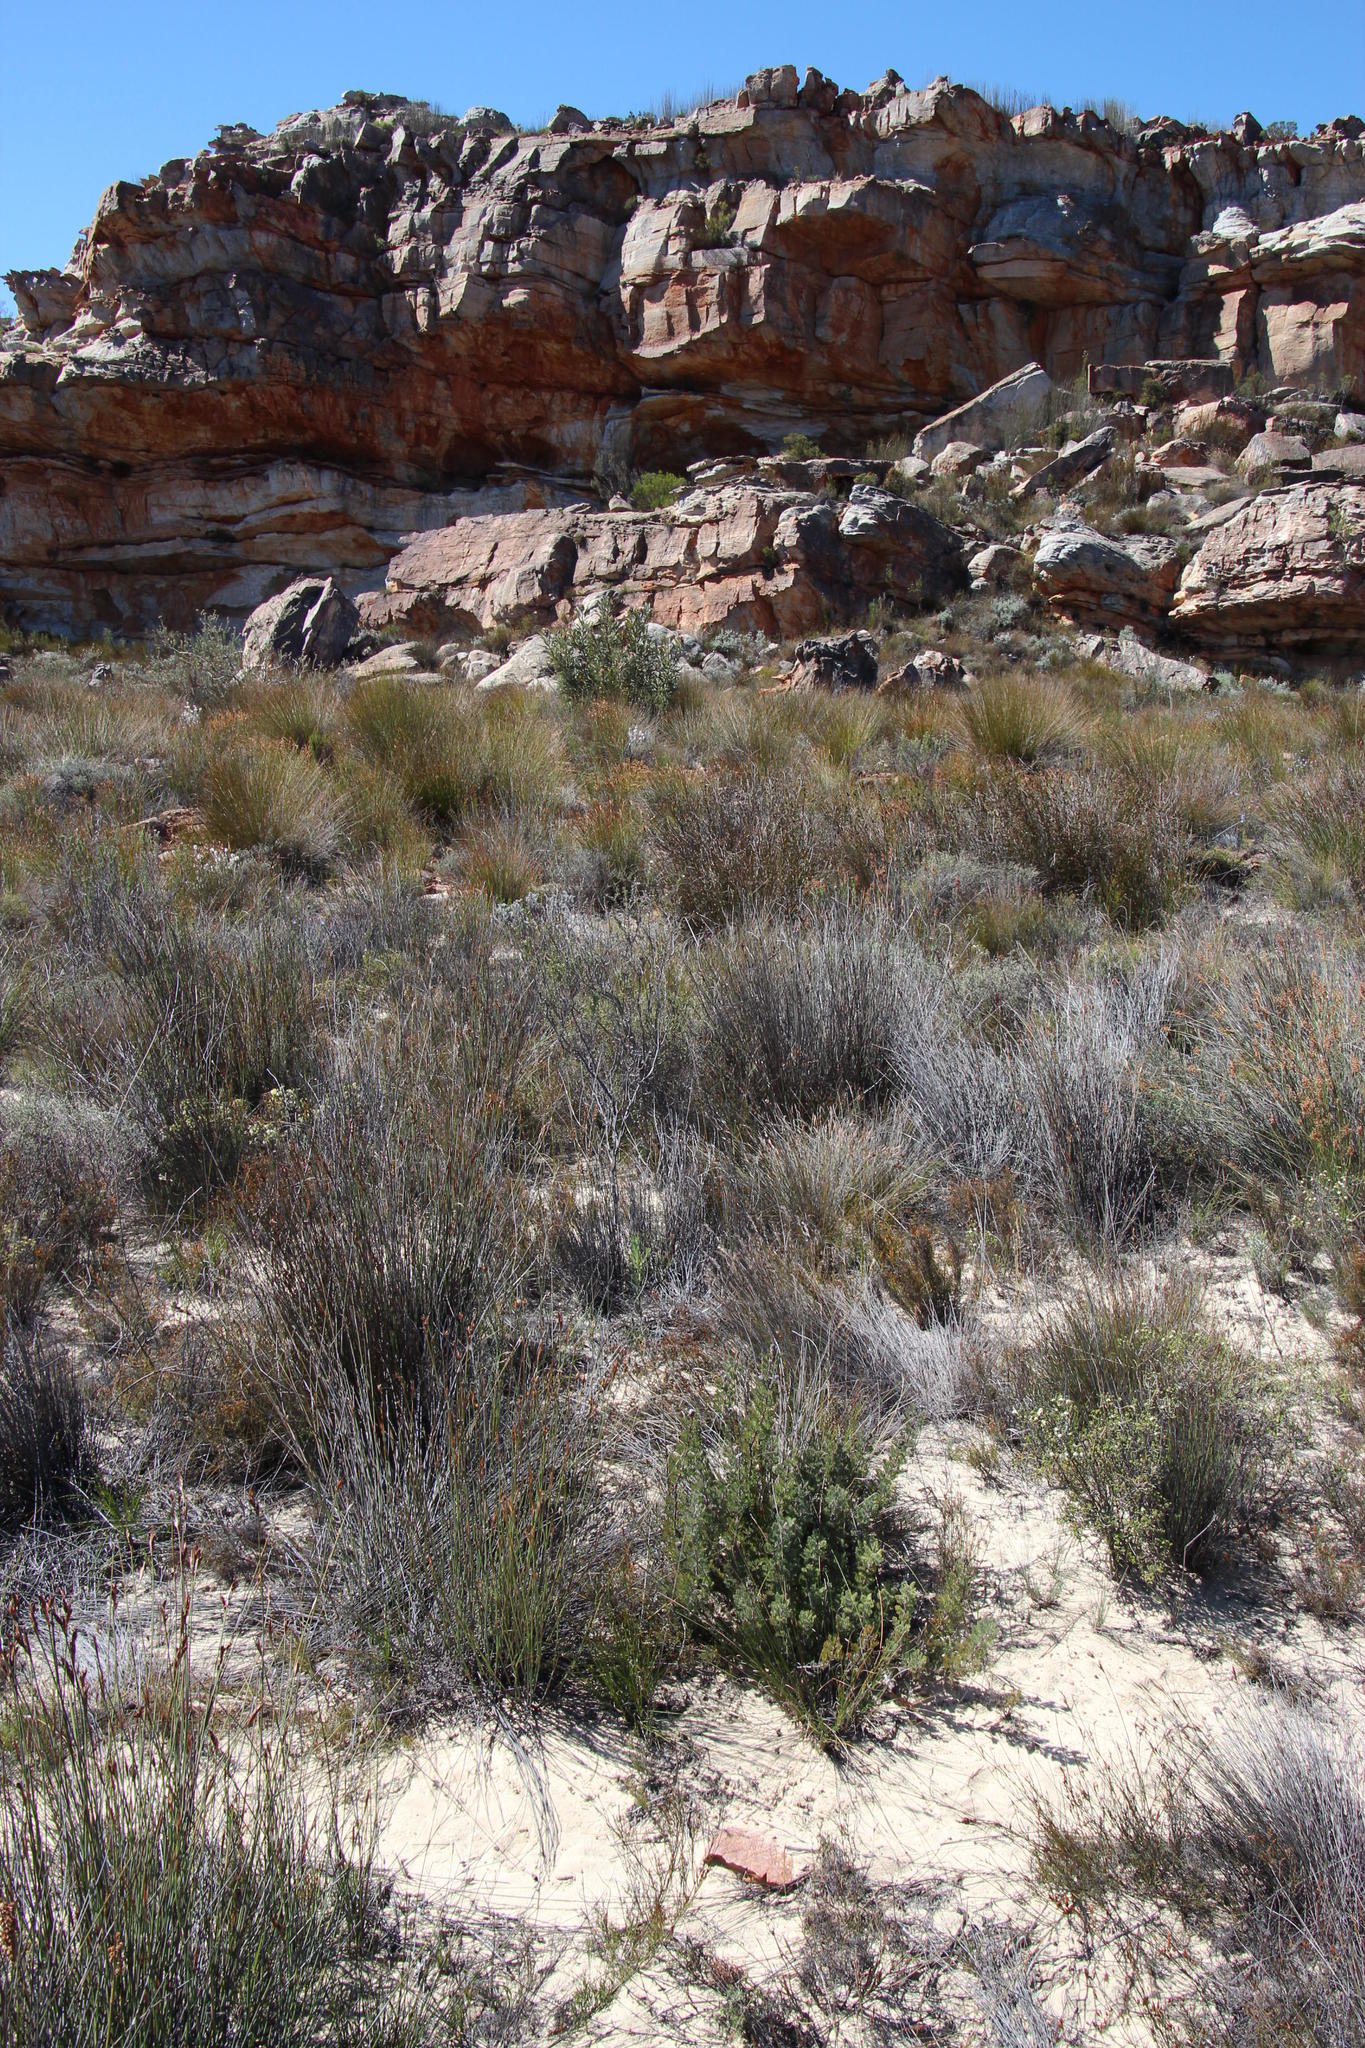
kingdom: Plantae
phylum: Tracheophyta
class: Magnoliopsida
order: Proteales
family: Proteaceae
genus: Serruria
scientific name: Serruria flava
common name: Spiderhead
